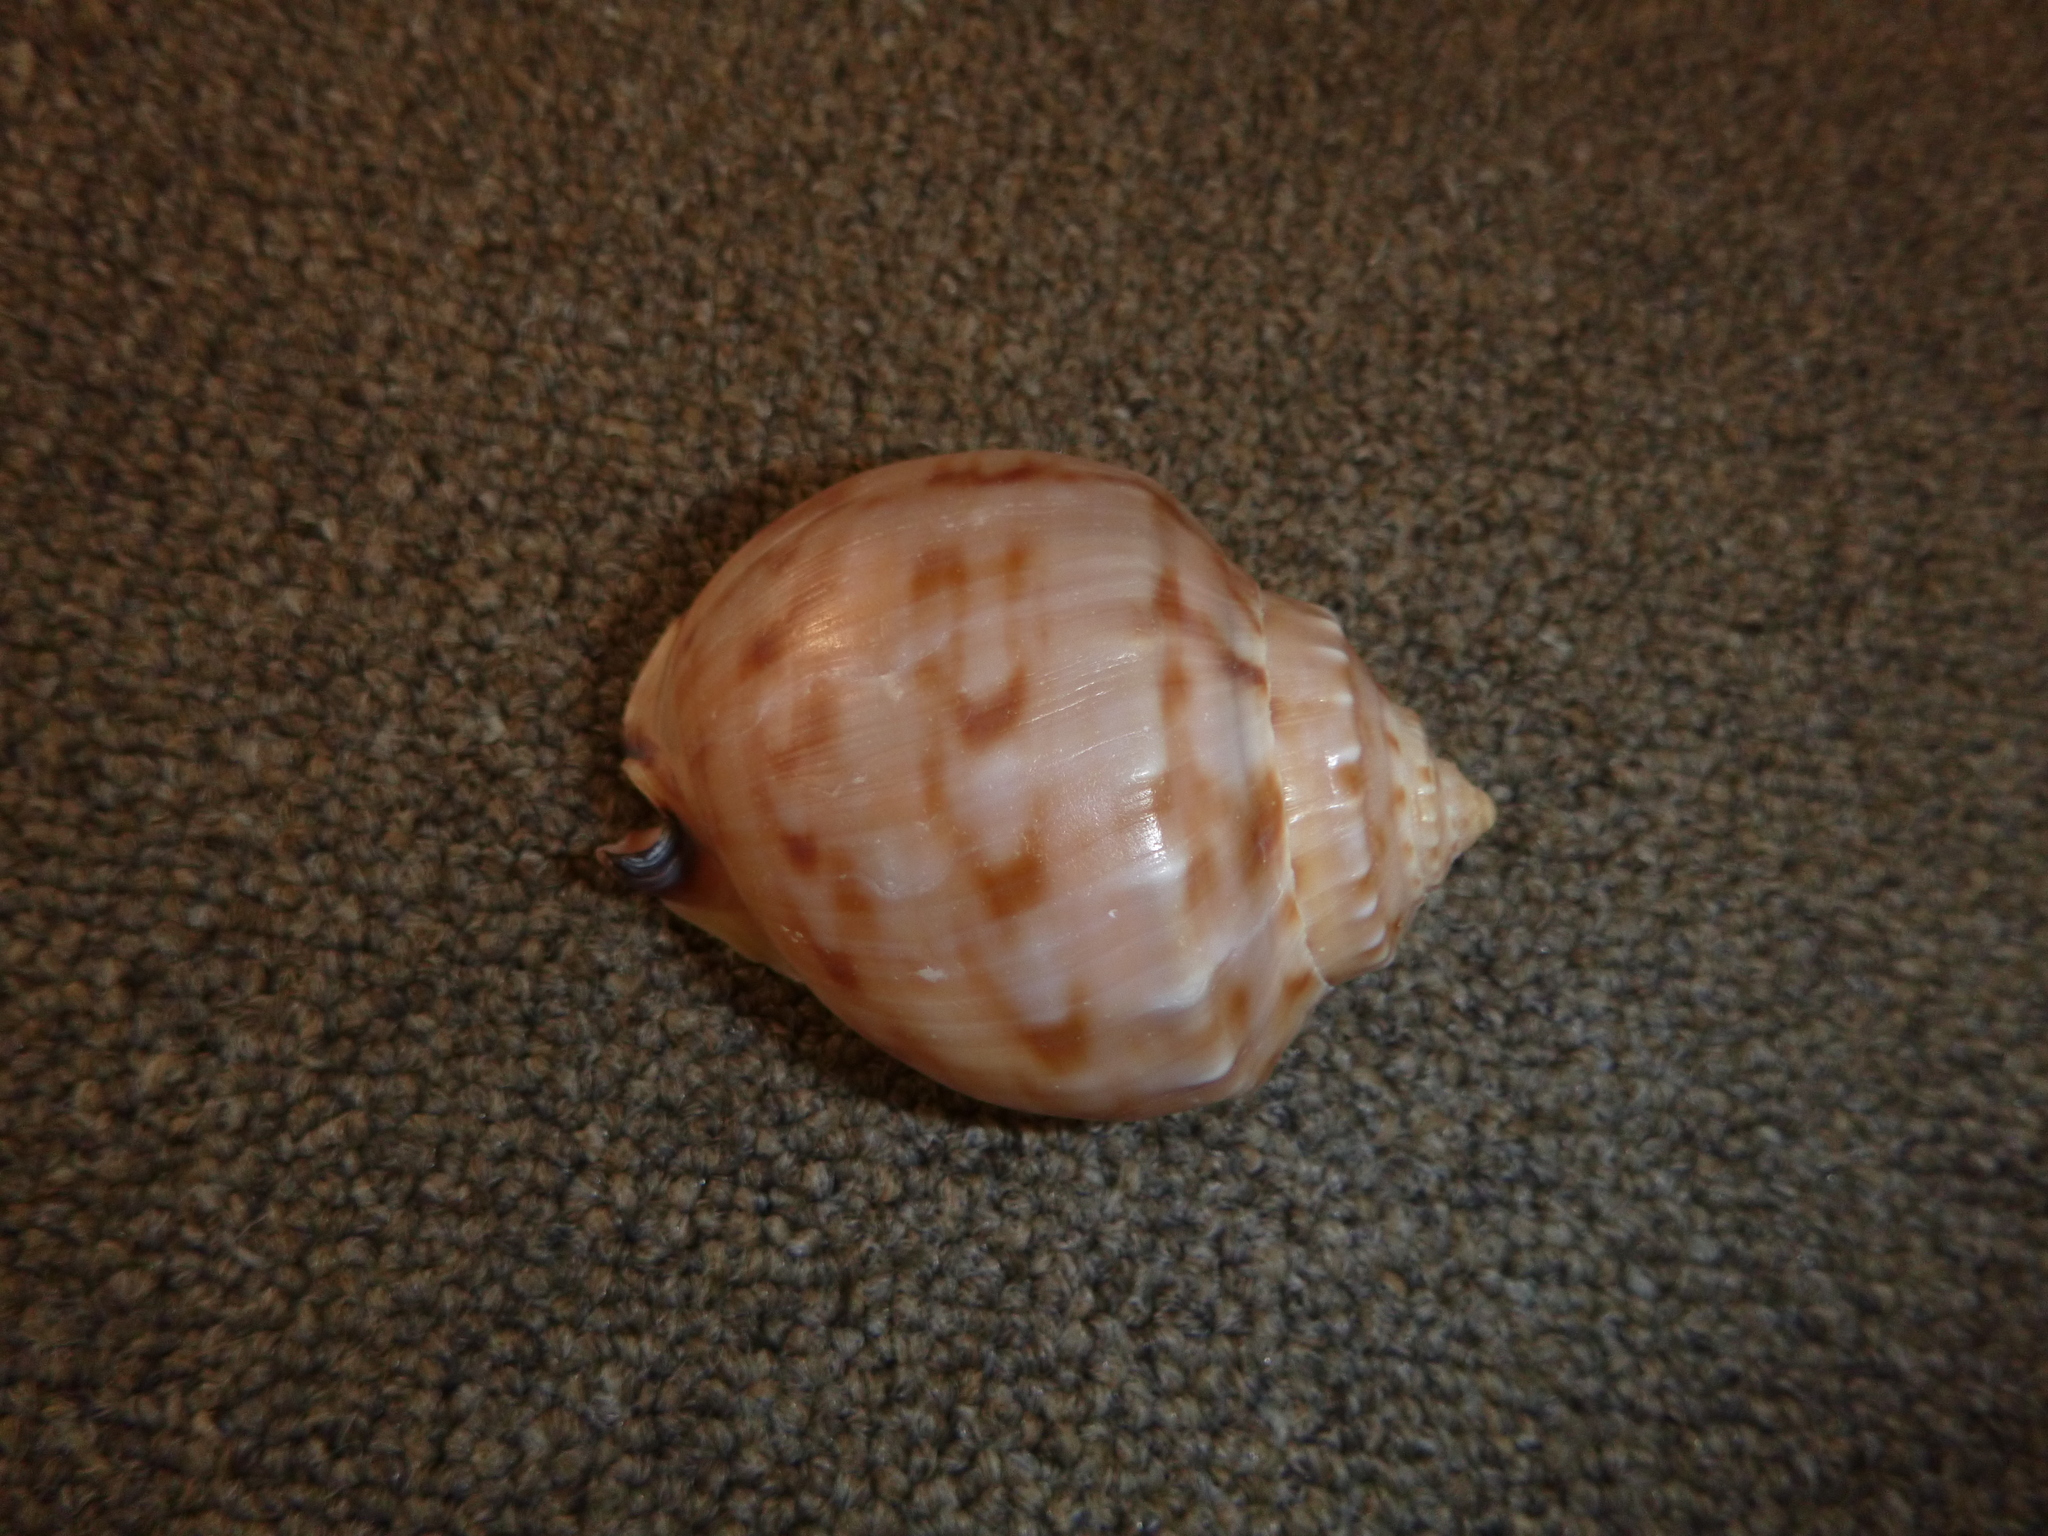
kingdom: Animalia
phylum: Mollusca
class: Gastropoda
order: Littorinimorpha
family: Cassidae
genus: Semicassis
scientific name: Semicassis pyrum
